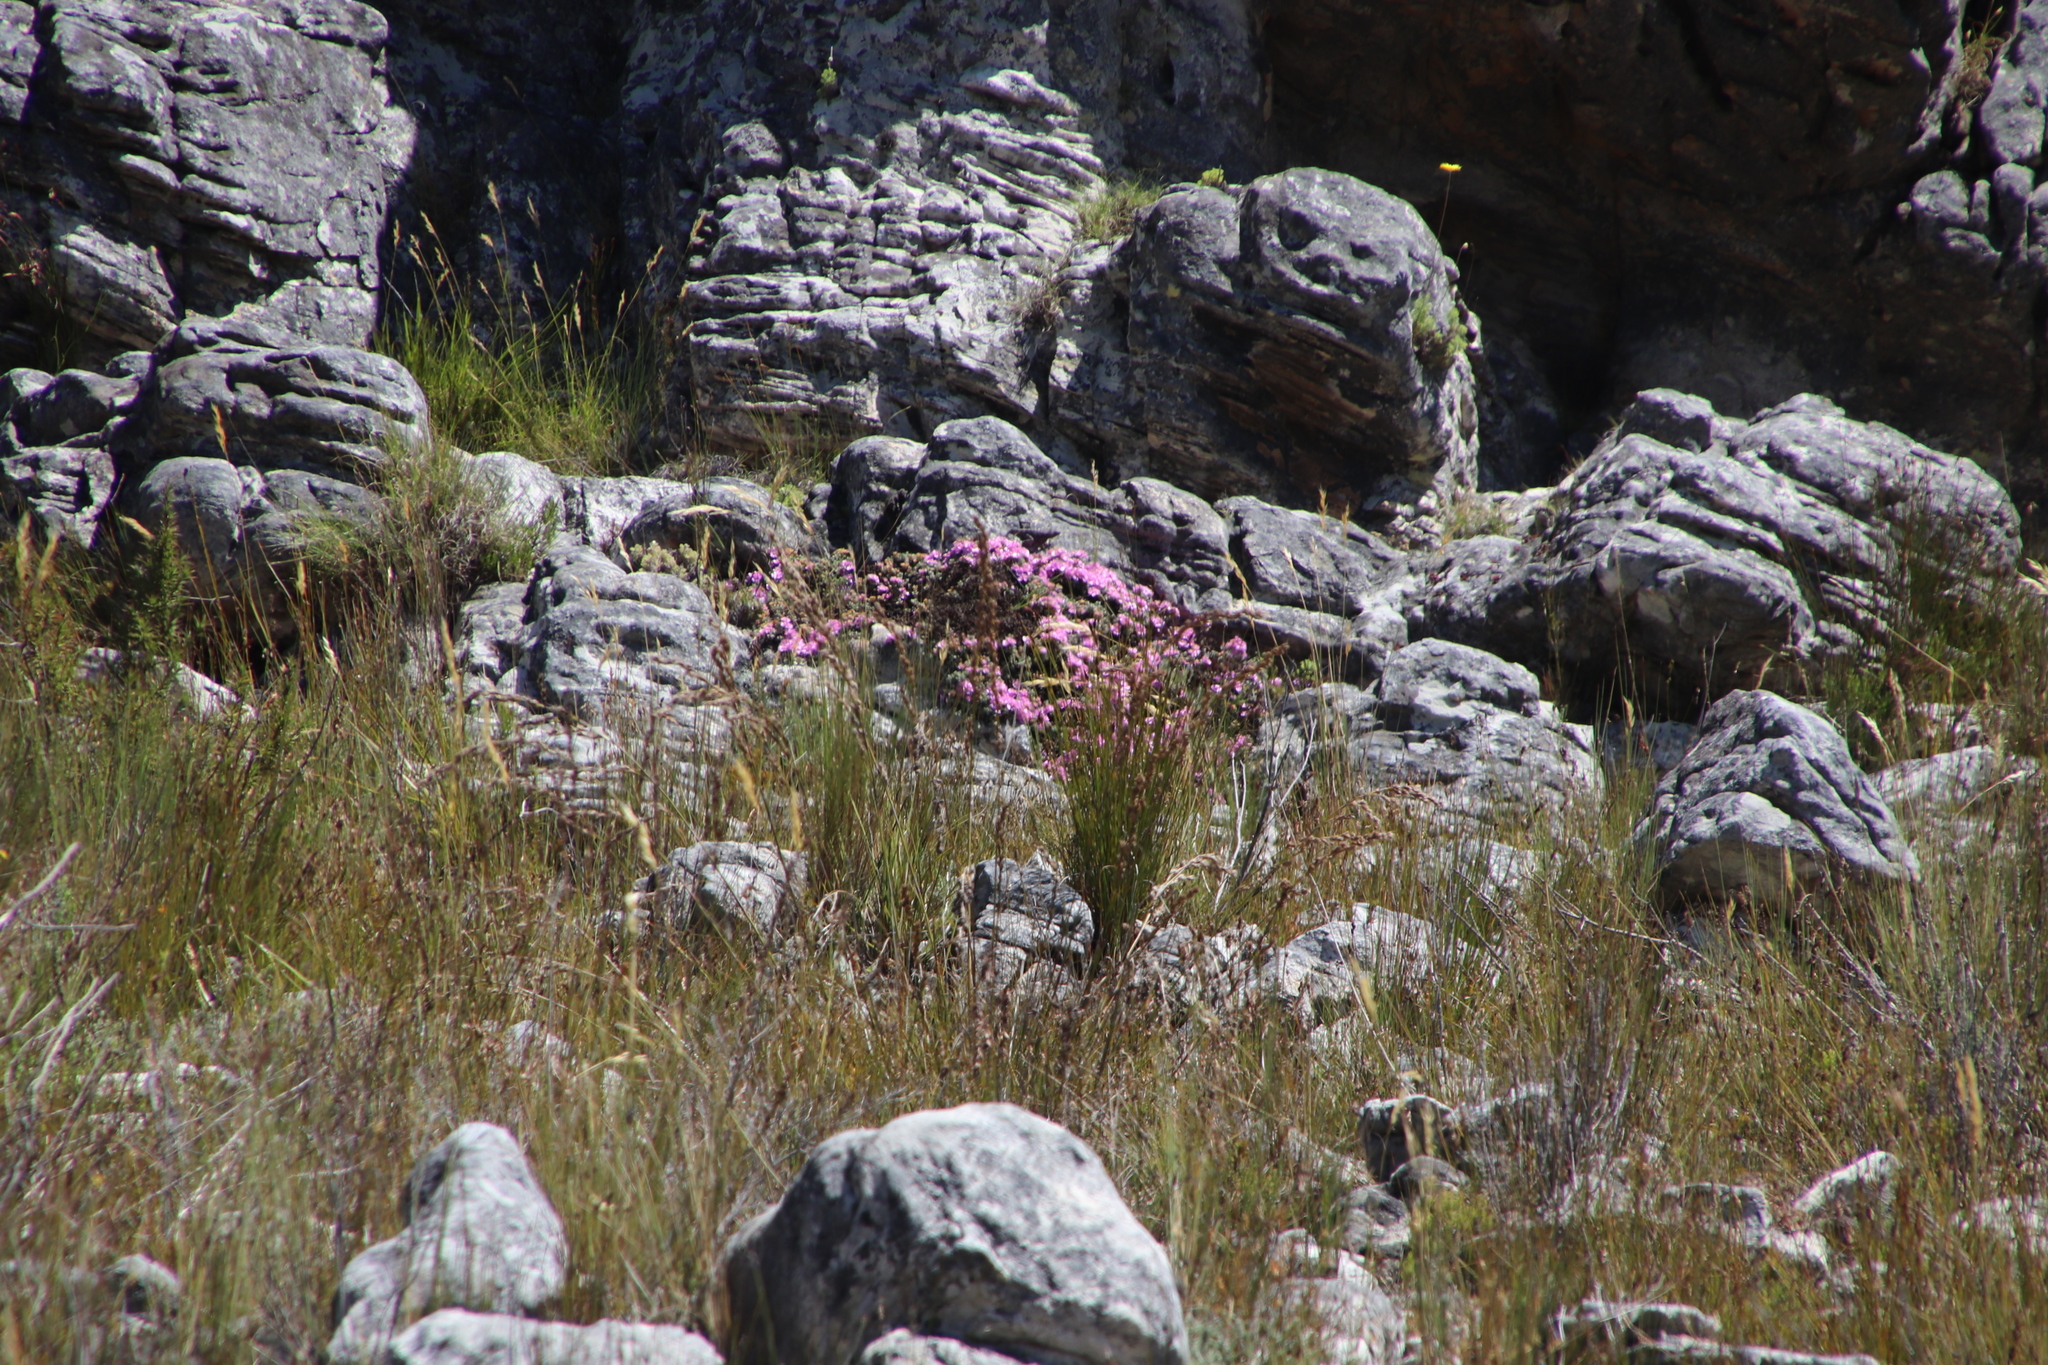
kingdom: Plantae
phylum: Tracheophyta
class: Magnoliopsida
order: Caryophyllales
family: Aizoaceae
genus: Oscularia
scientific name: Oscularia deltoides
